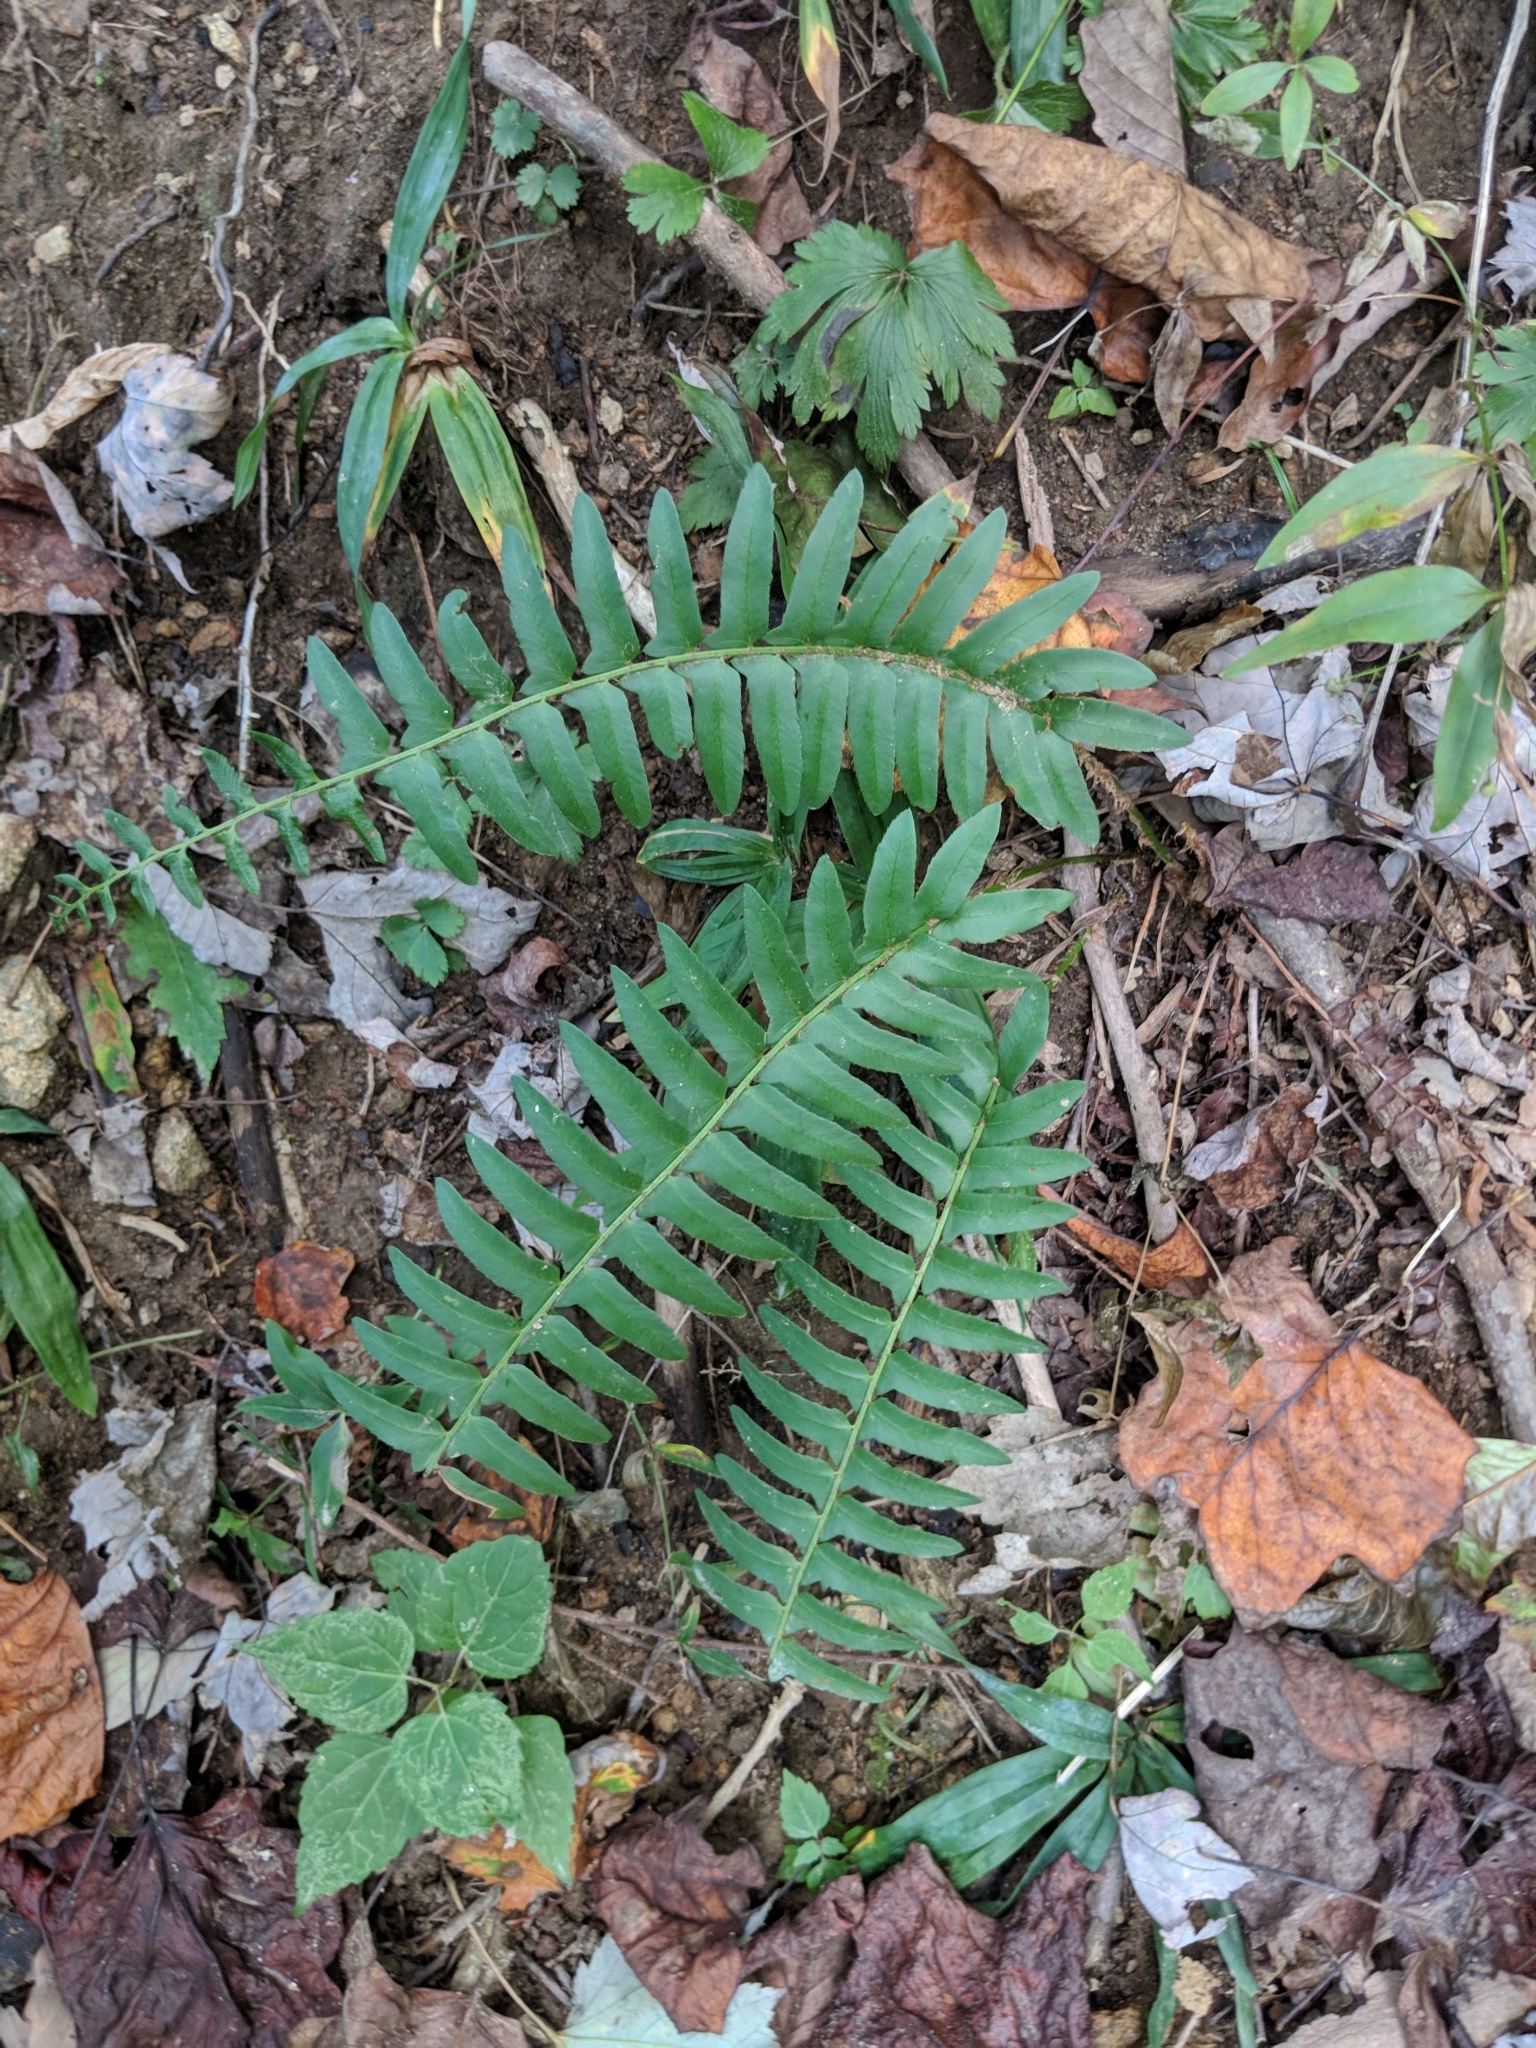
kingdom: Plantae
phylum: Tracheophyta
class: Polypodiopsida
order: Polypodiales
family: Dryopteridaceae
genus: Polystichum
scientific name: Polystichum acrostichoides
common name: Christmas fern
